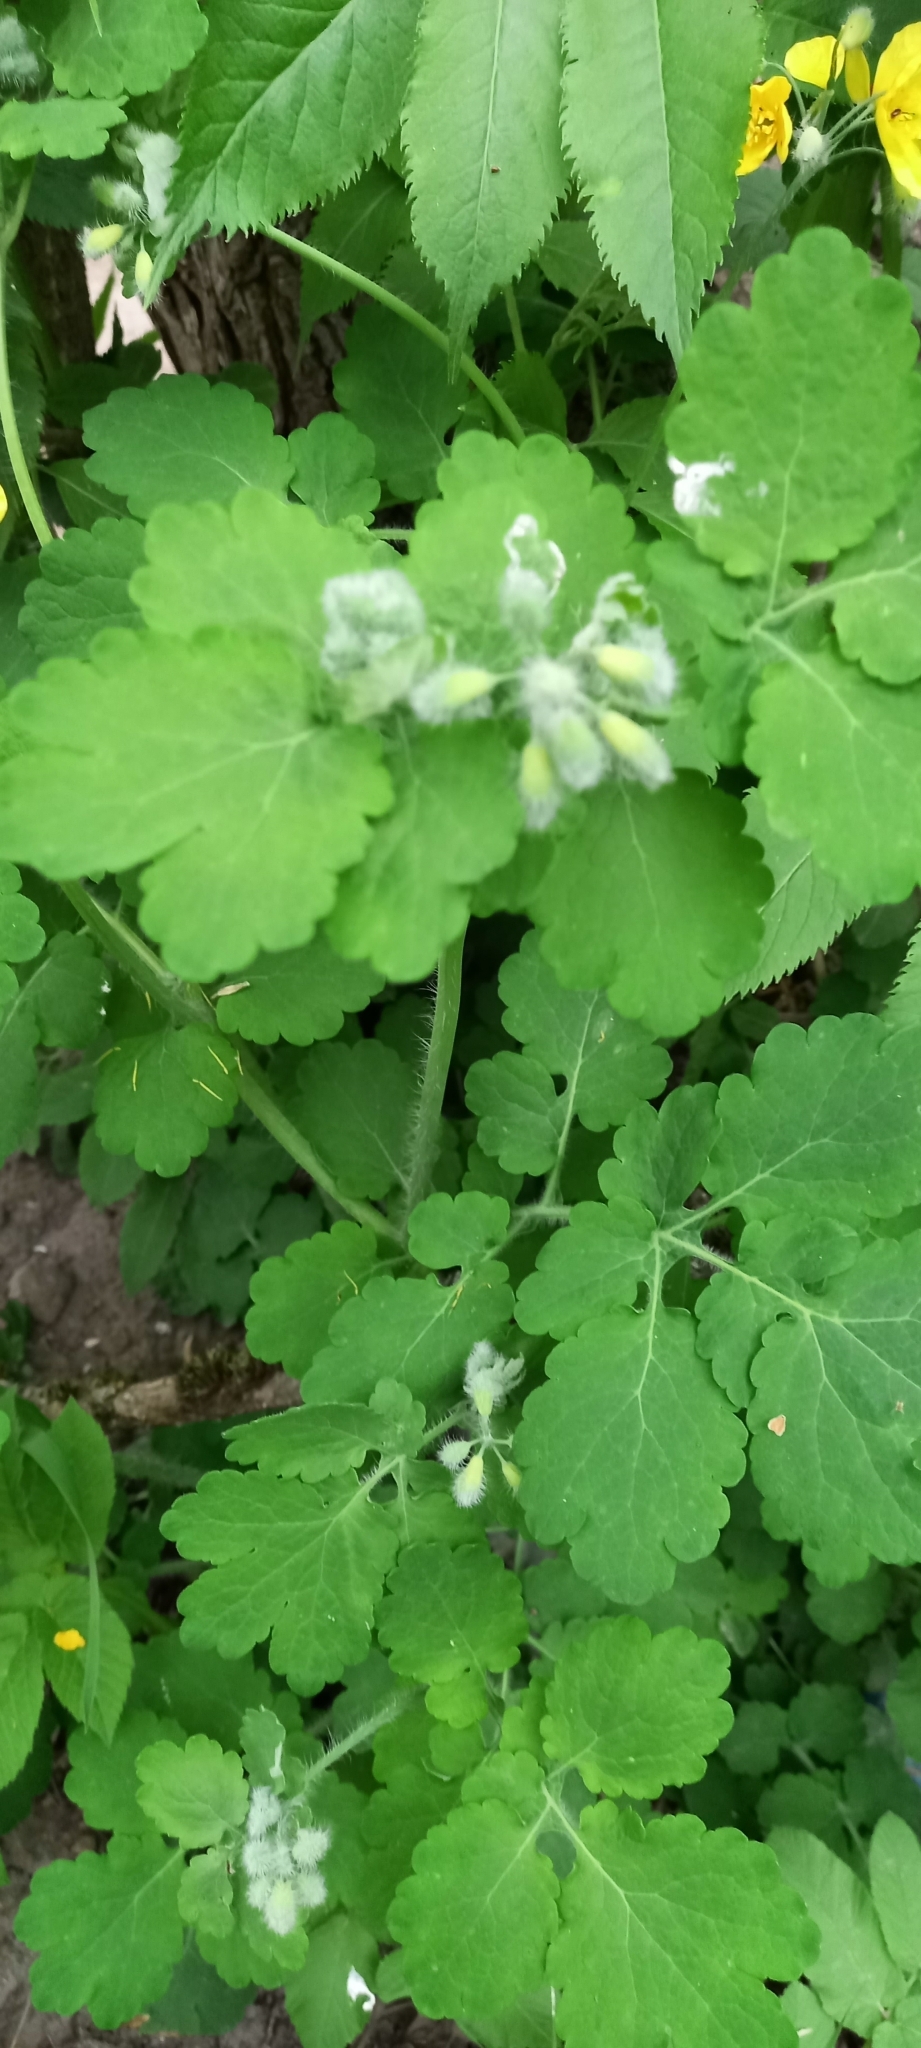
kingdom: Plantae
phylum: Tracheophyta
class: Magnoliopsida
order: Ranunculales
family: Papaveraceae
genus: Chelidonium
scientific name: Chelidonium majus
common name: Greater celandine
